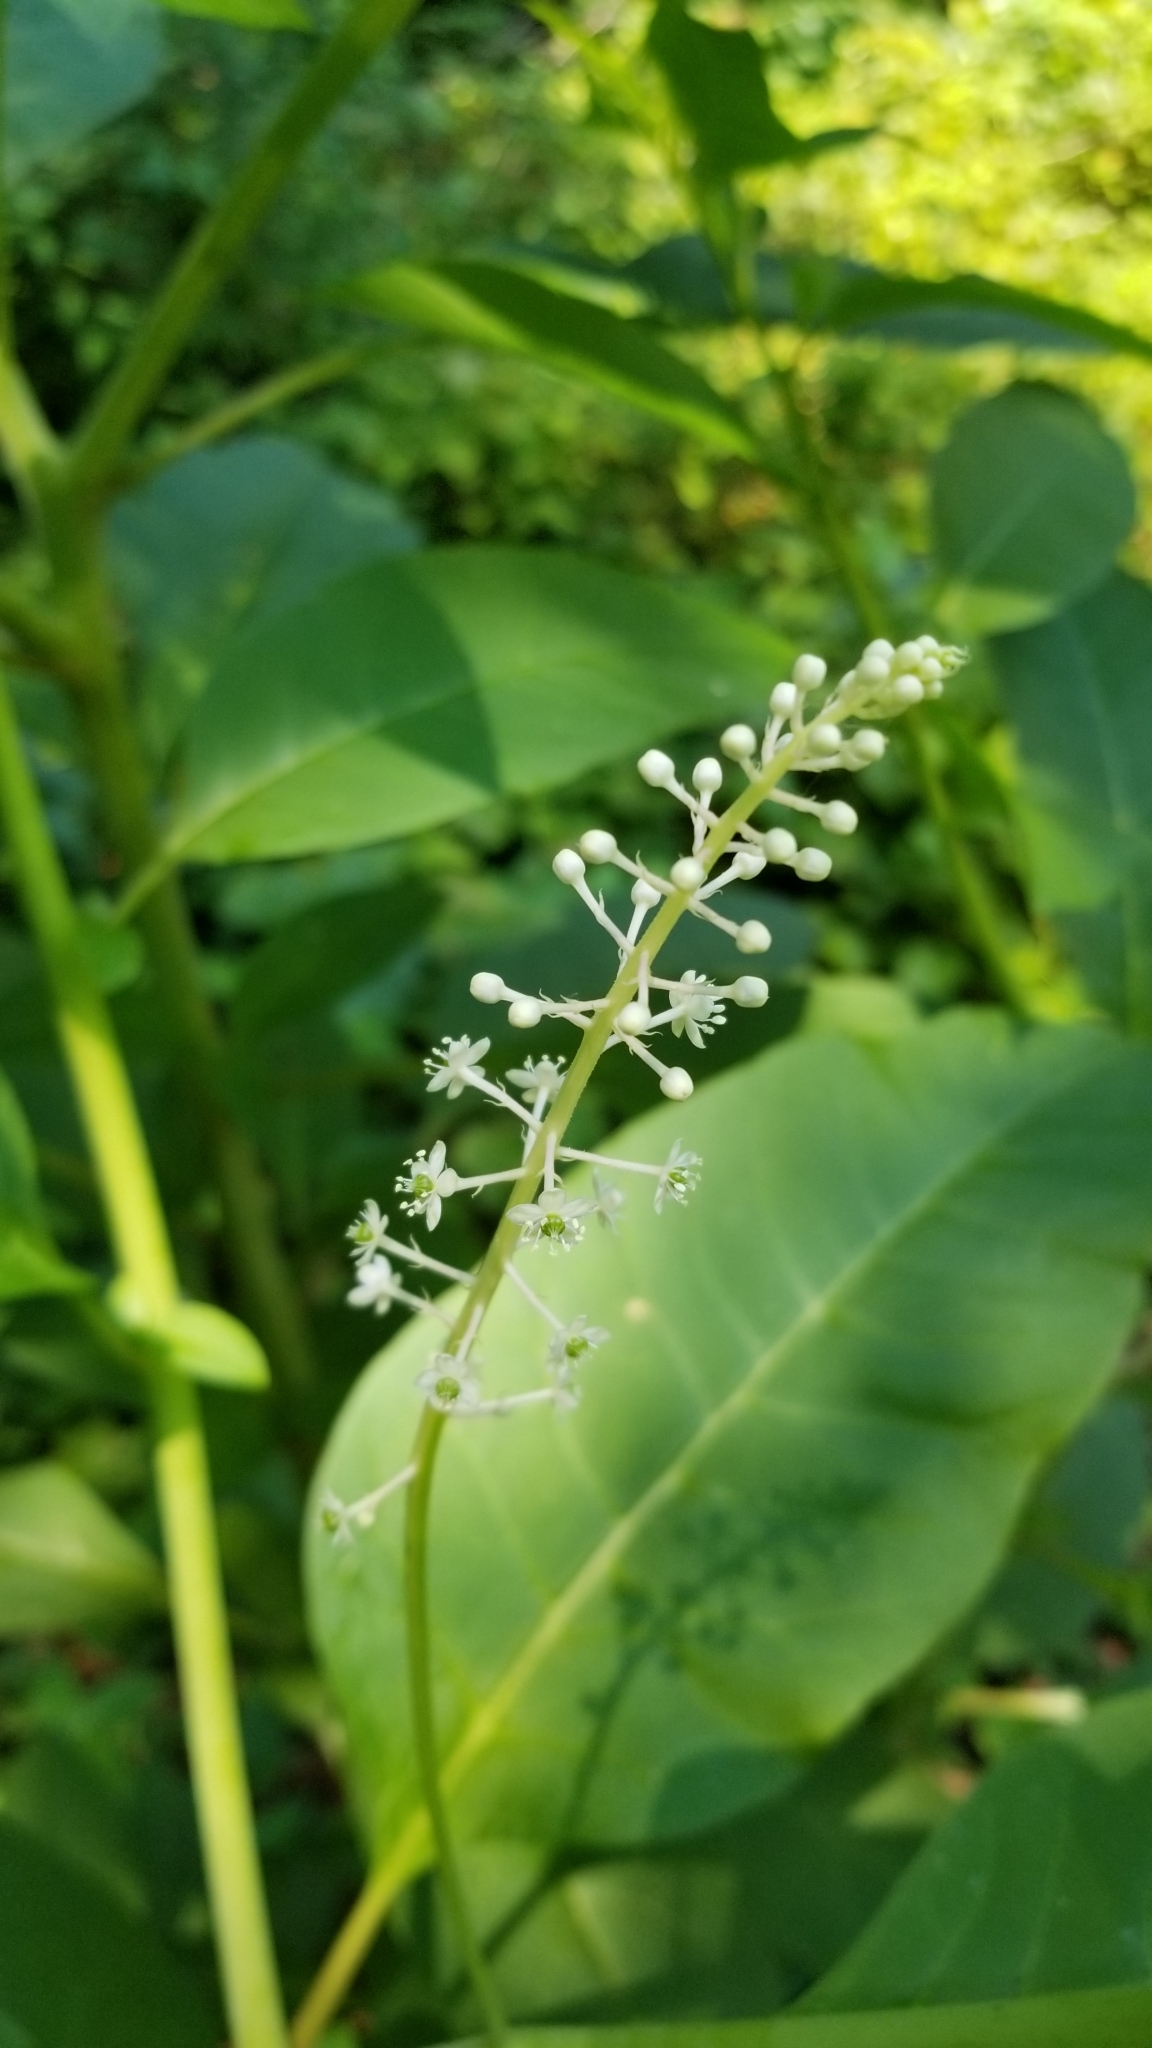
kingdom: Plantae
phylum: Tracheophyta
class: Magnoliopsida
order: Caryophyllales
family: Phytolaccaceae
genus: Phytolacca
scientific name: Phytolacca americana
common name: American pokeweed
